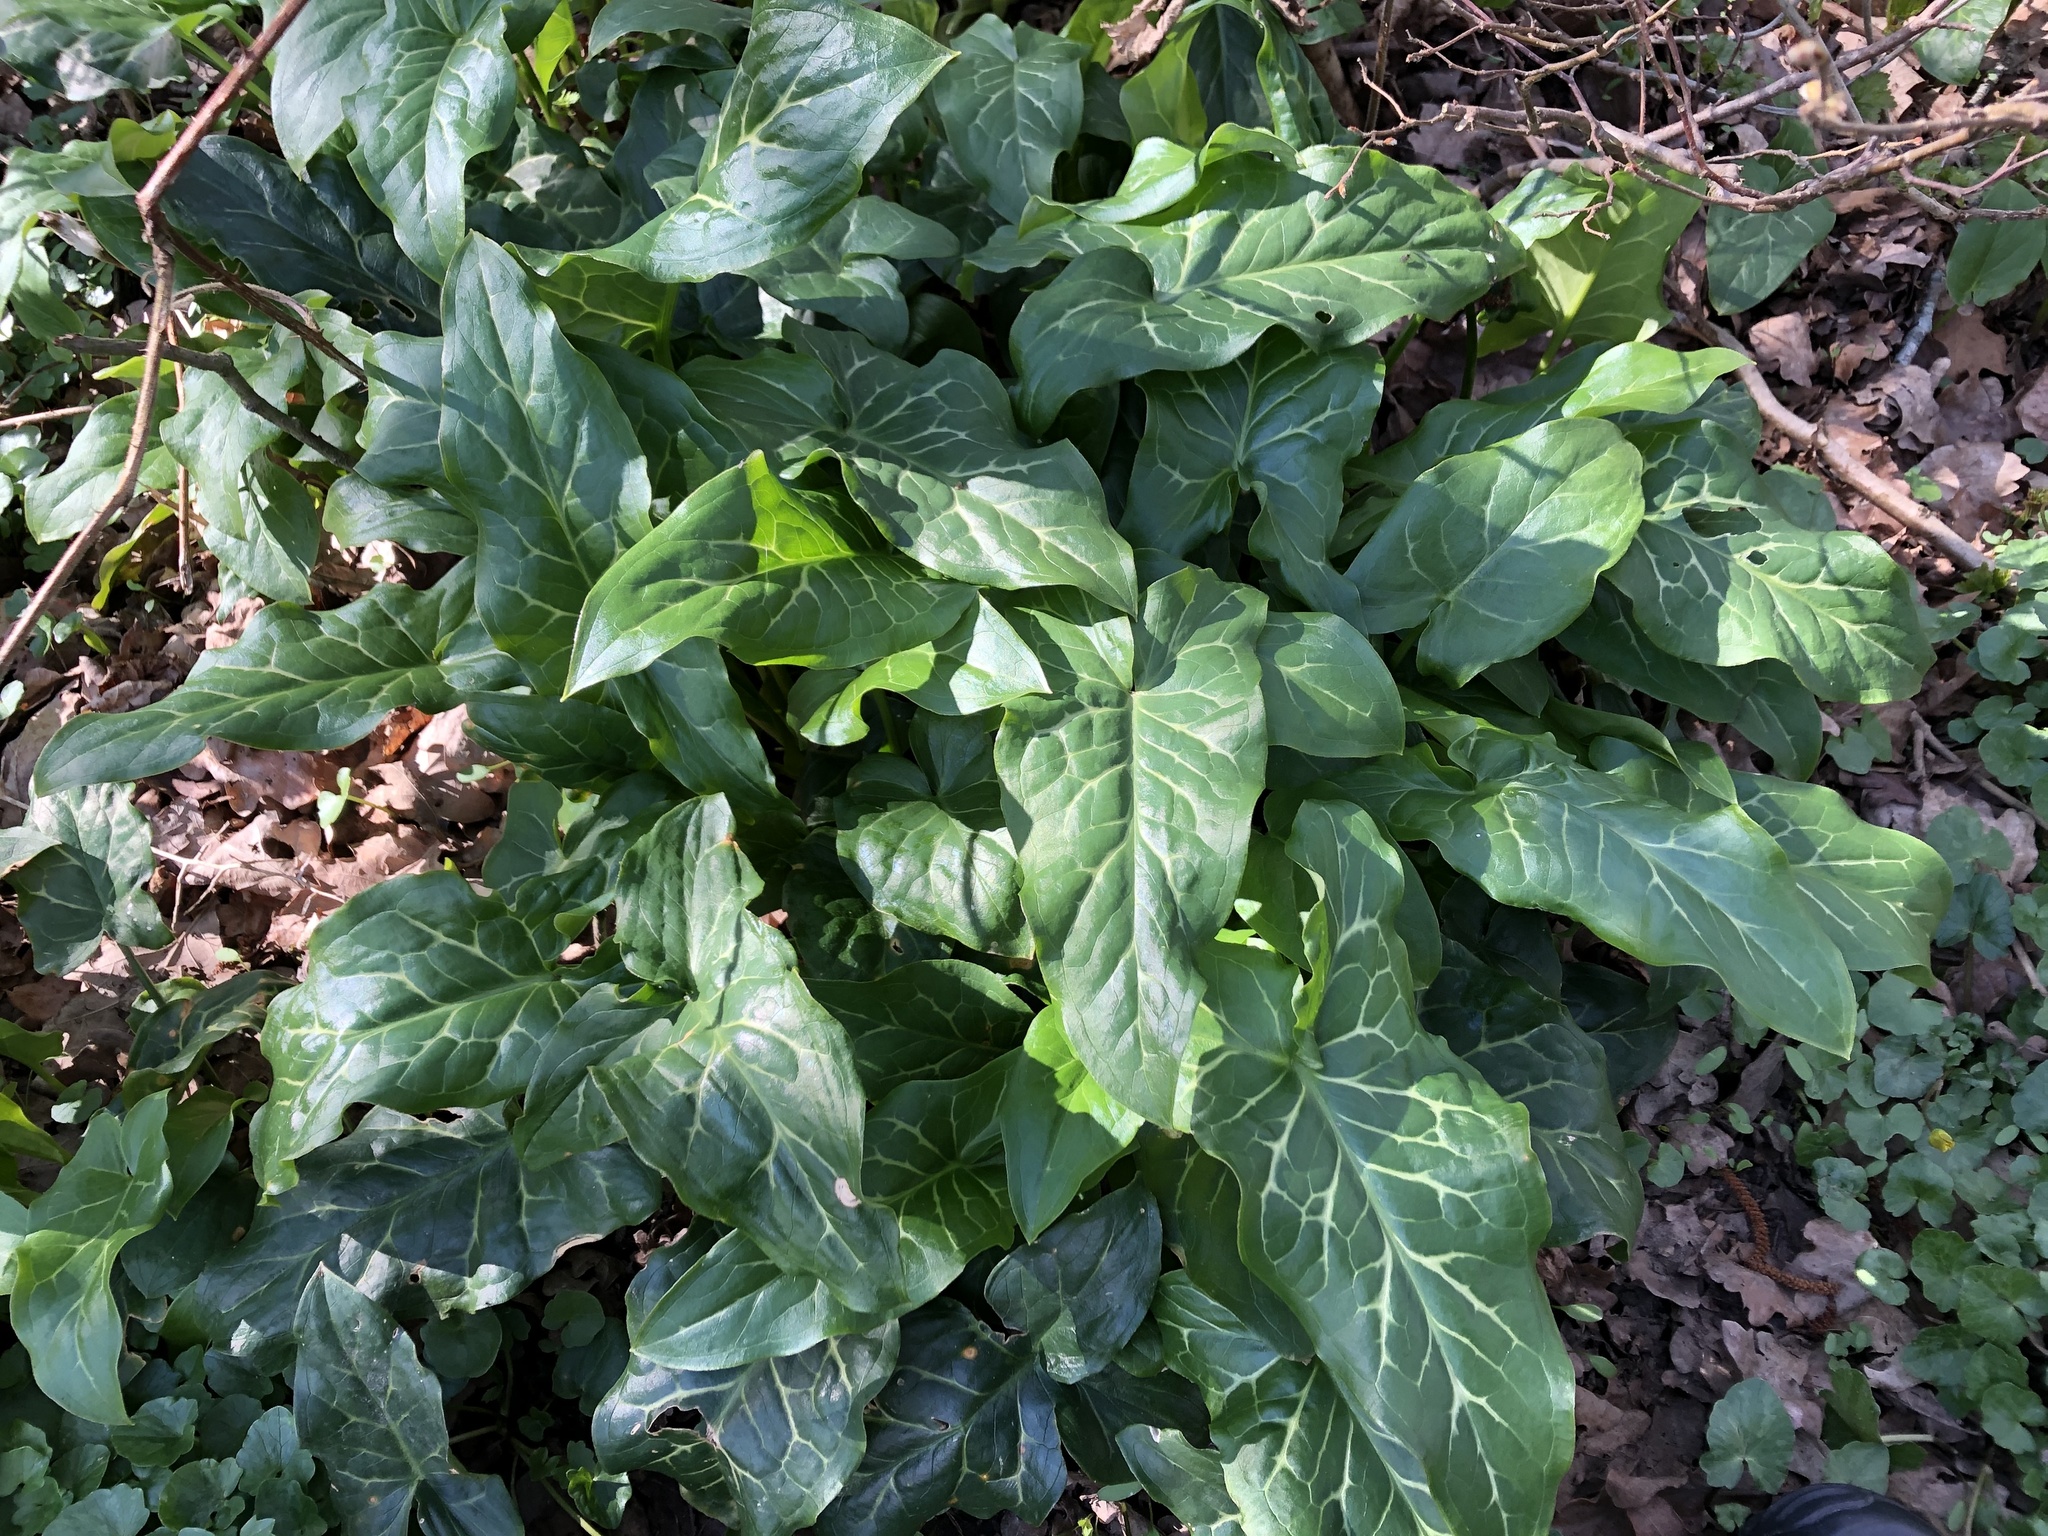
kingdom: Plantae
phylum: Tracheophyta
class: Liliopsida
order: Alismatales
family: Araceae
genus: Arum
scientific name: Arum italicum
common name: Italian lords-and-ladies
